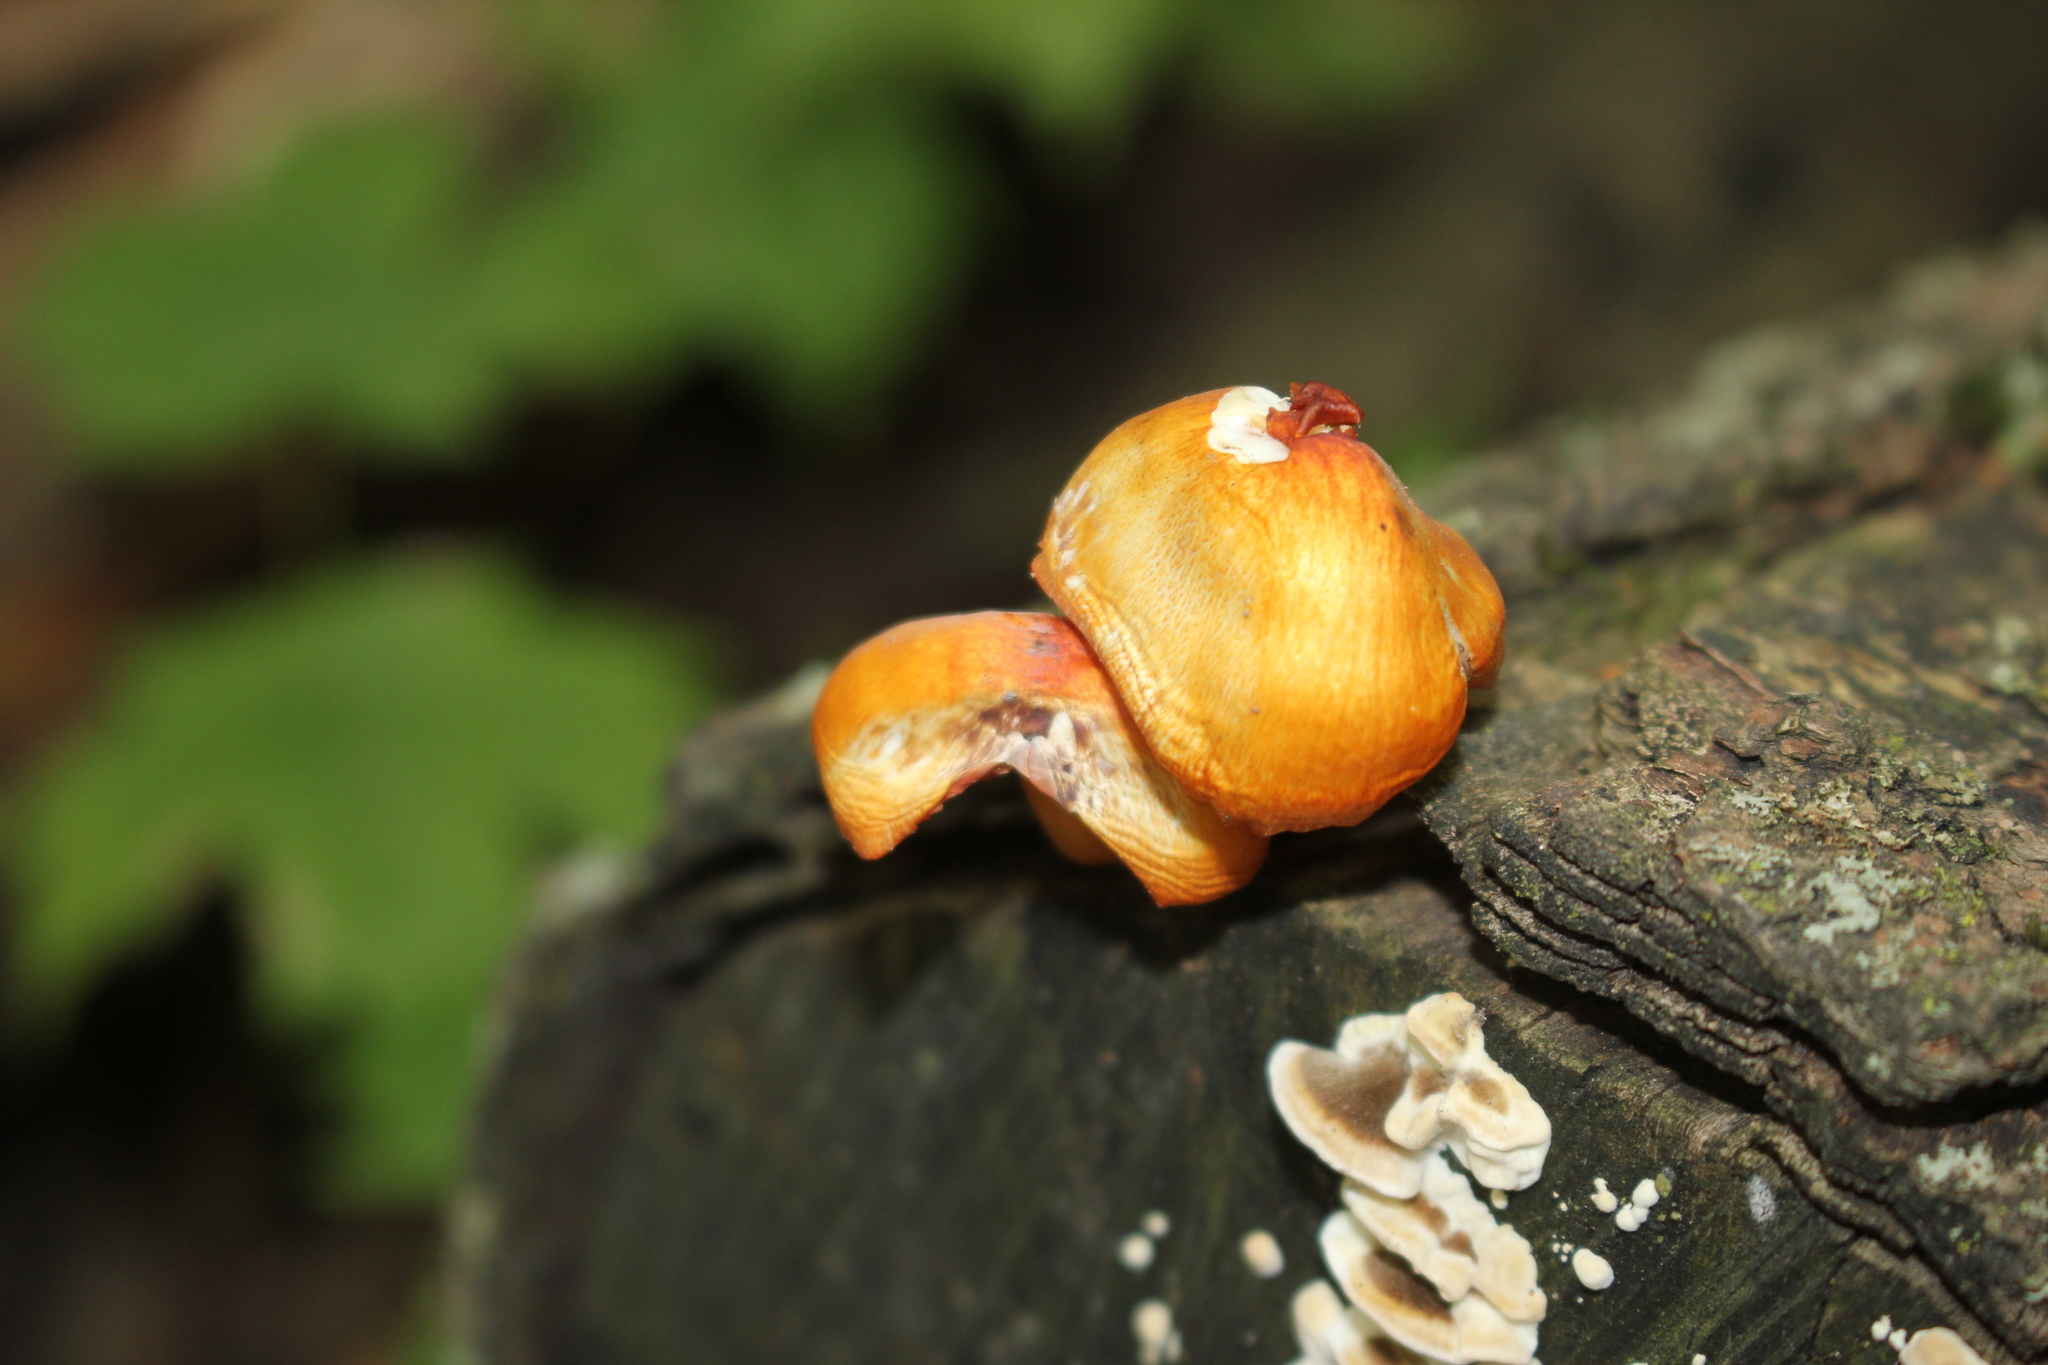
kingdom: Fungi
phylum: Basidiomycota
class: Agaricomycetes
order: Agaricales
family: Mycenaceae
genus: Mycena
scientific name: Mycena leaiana
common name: Orange mycena
